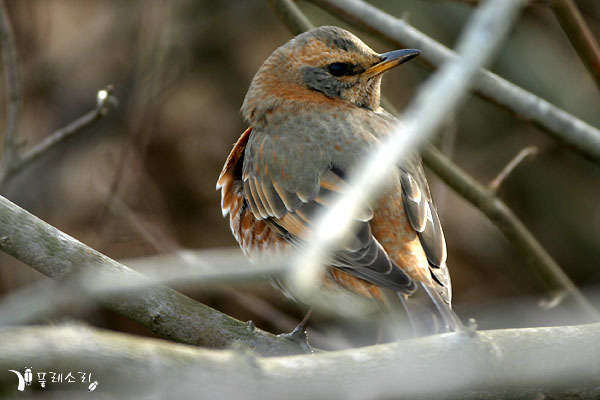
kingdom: Animalia
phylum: Chordata
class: Aves
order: Passeriformes
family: Turdidae
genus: Turdus
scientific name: Turdus naumanni
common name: Naumann's thrush
